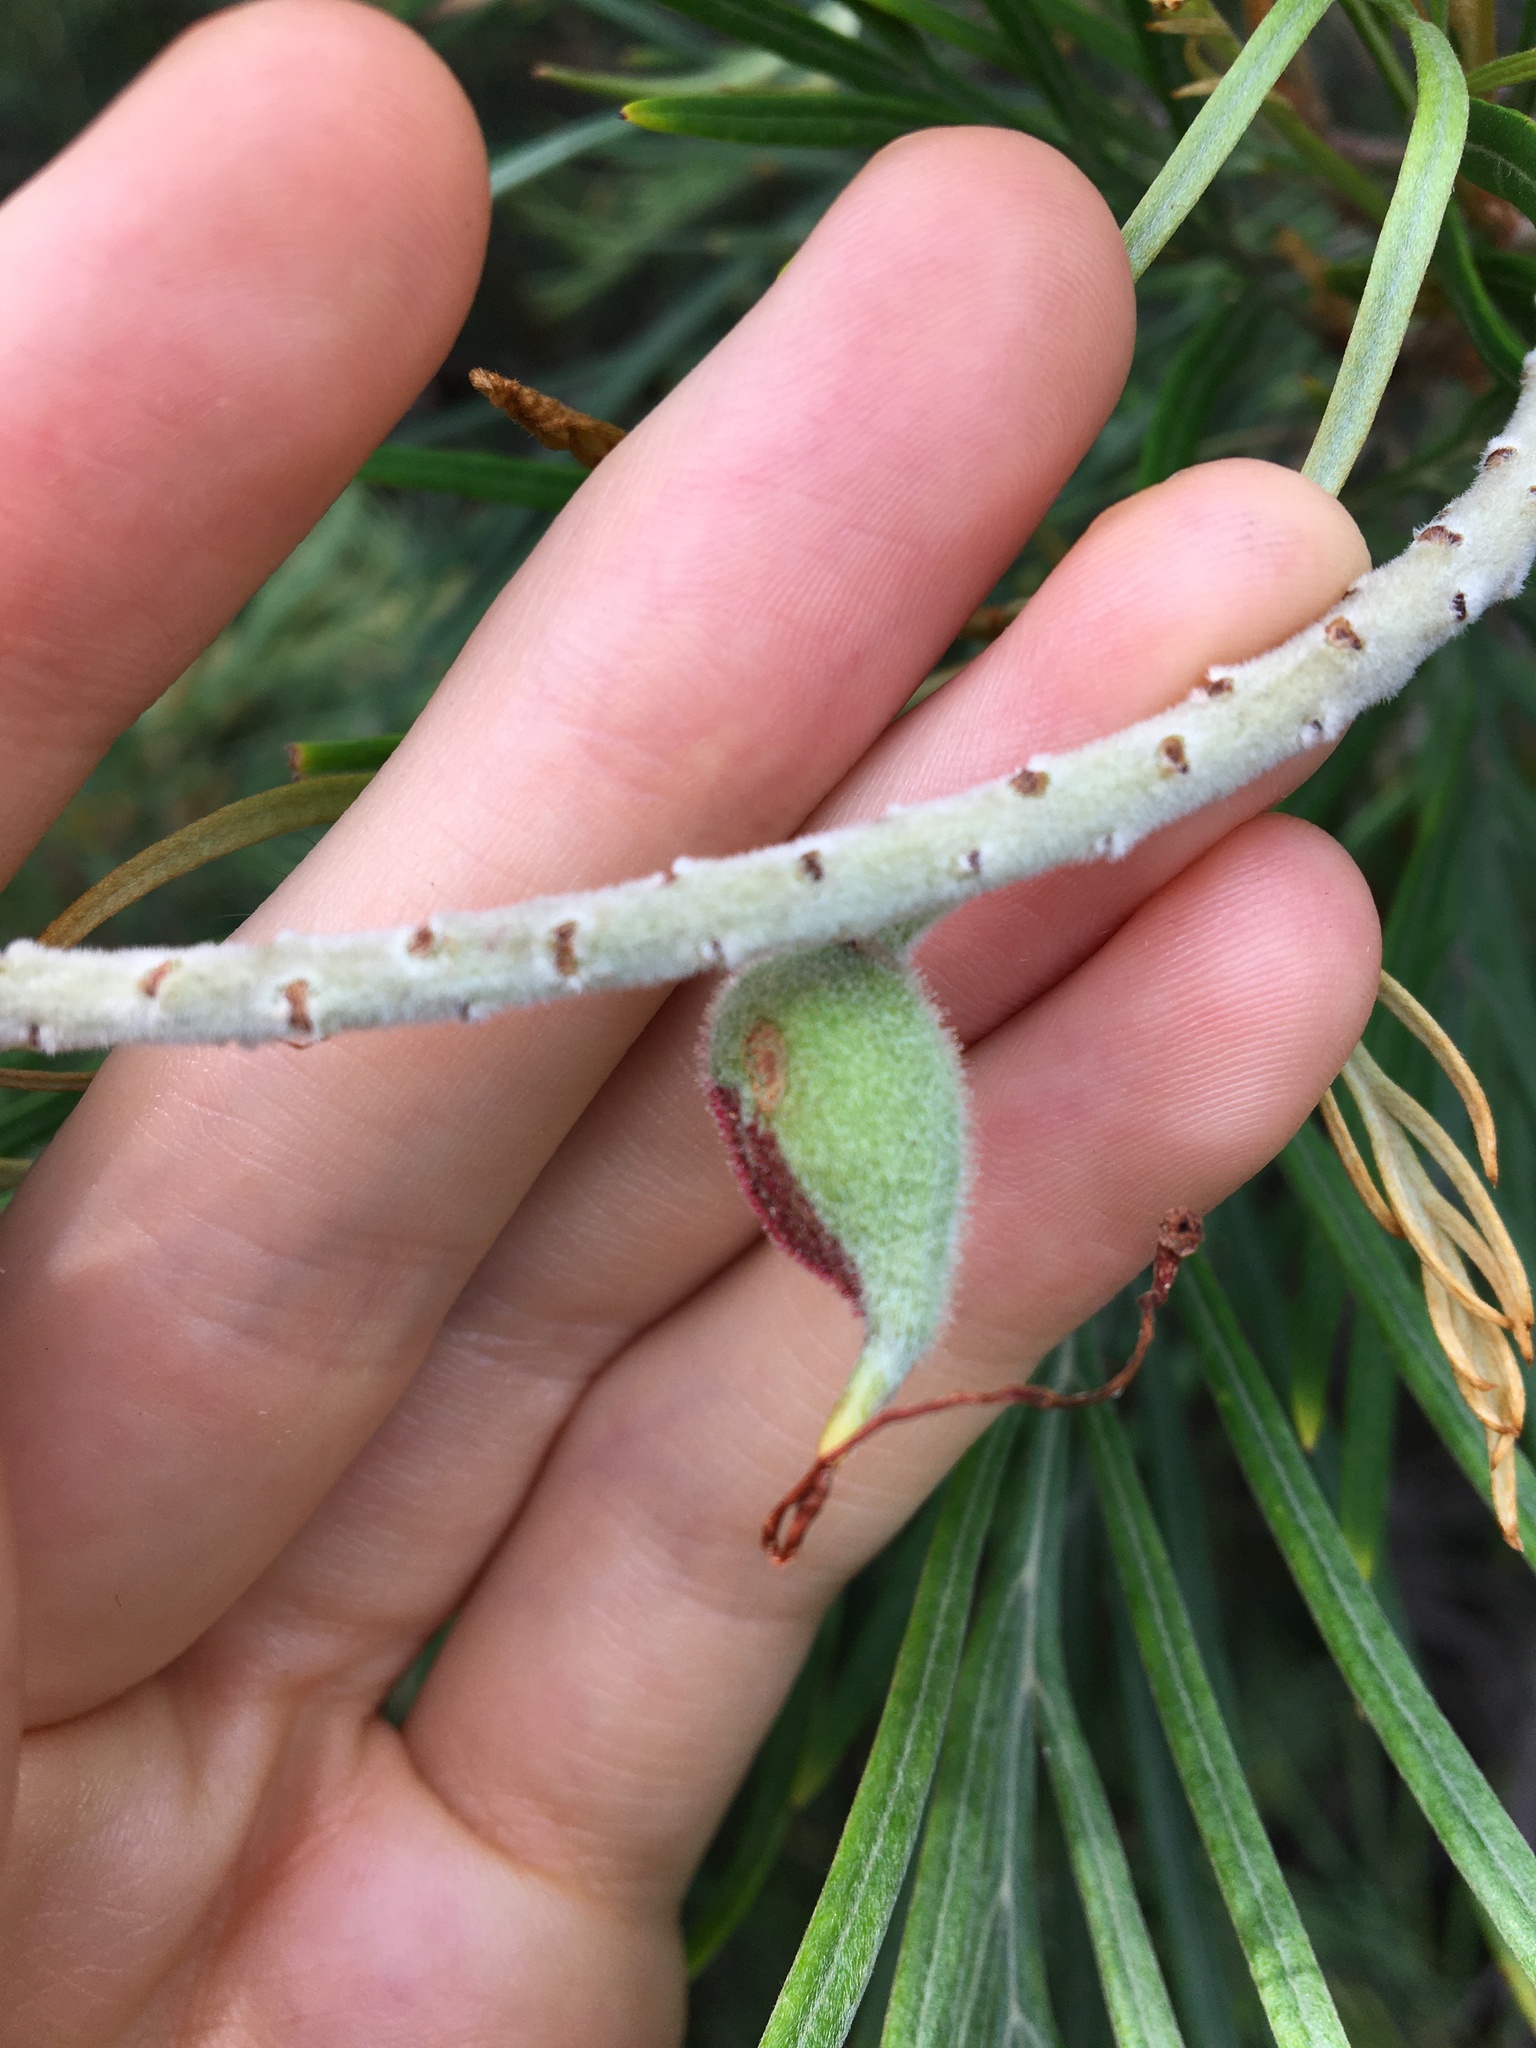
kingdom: Plantae
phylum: Tracheophyta
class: Magnoliopsida
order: Proteales
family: Proteaceae
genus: Grevillea
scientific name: Grevillea
